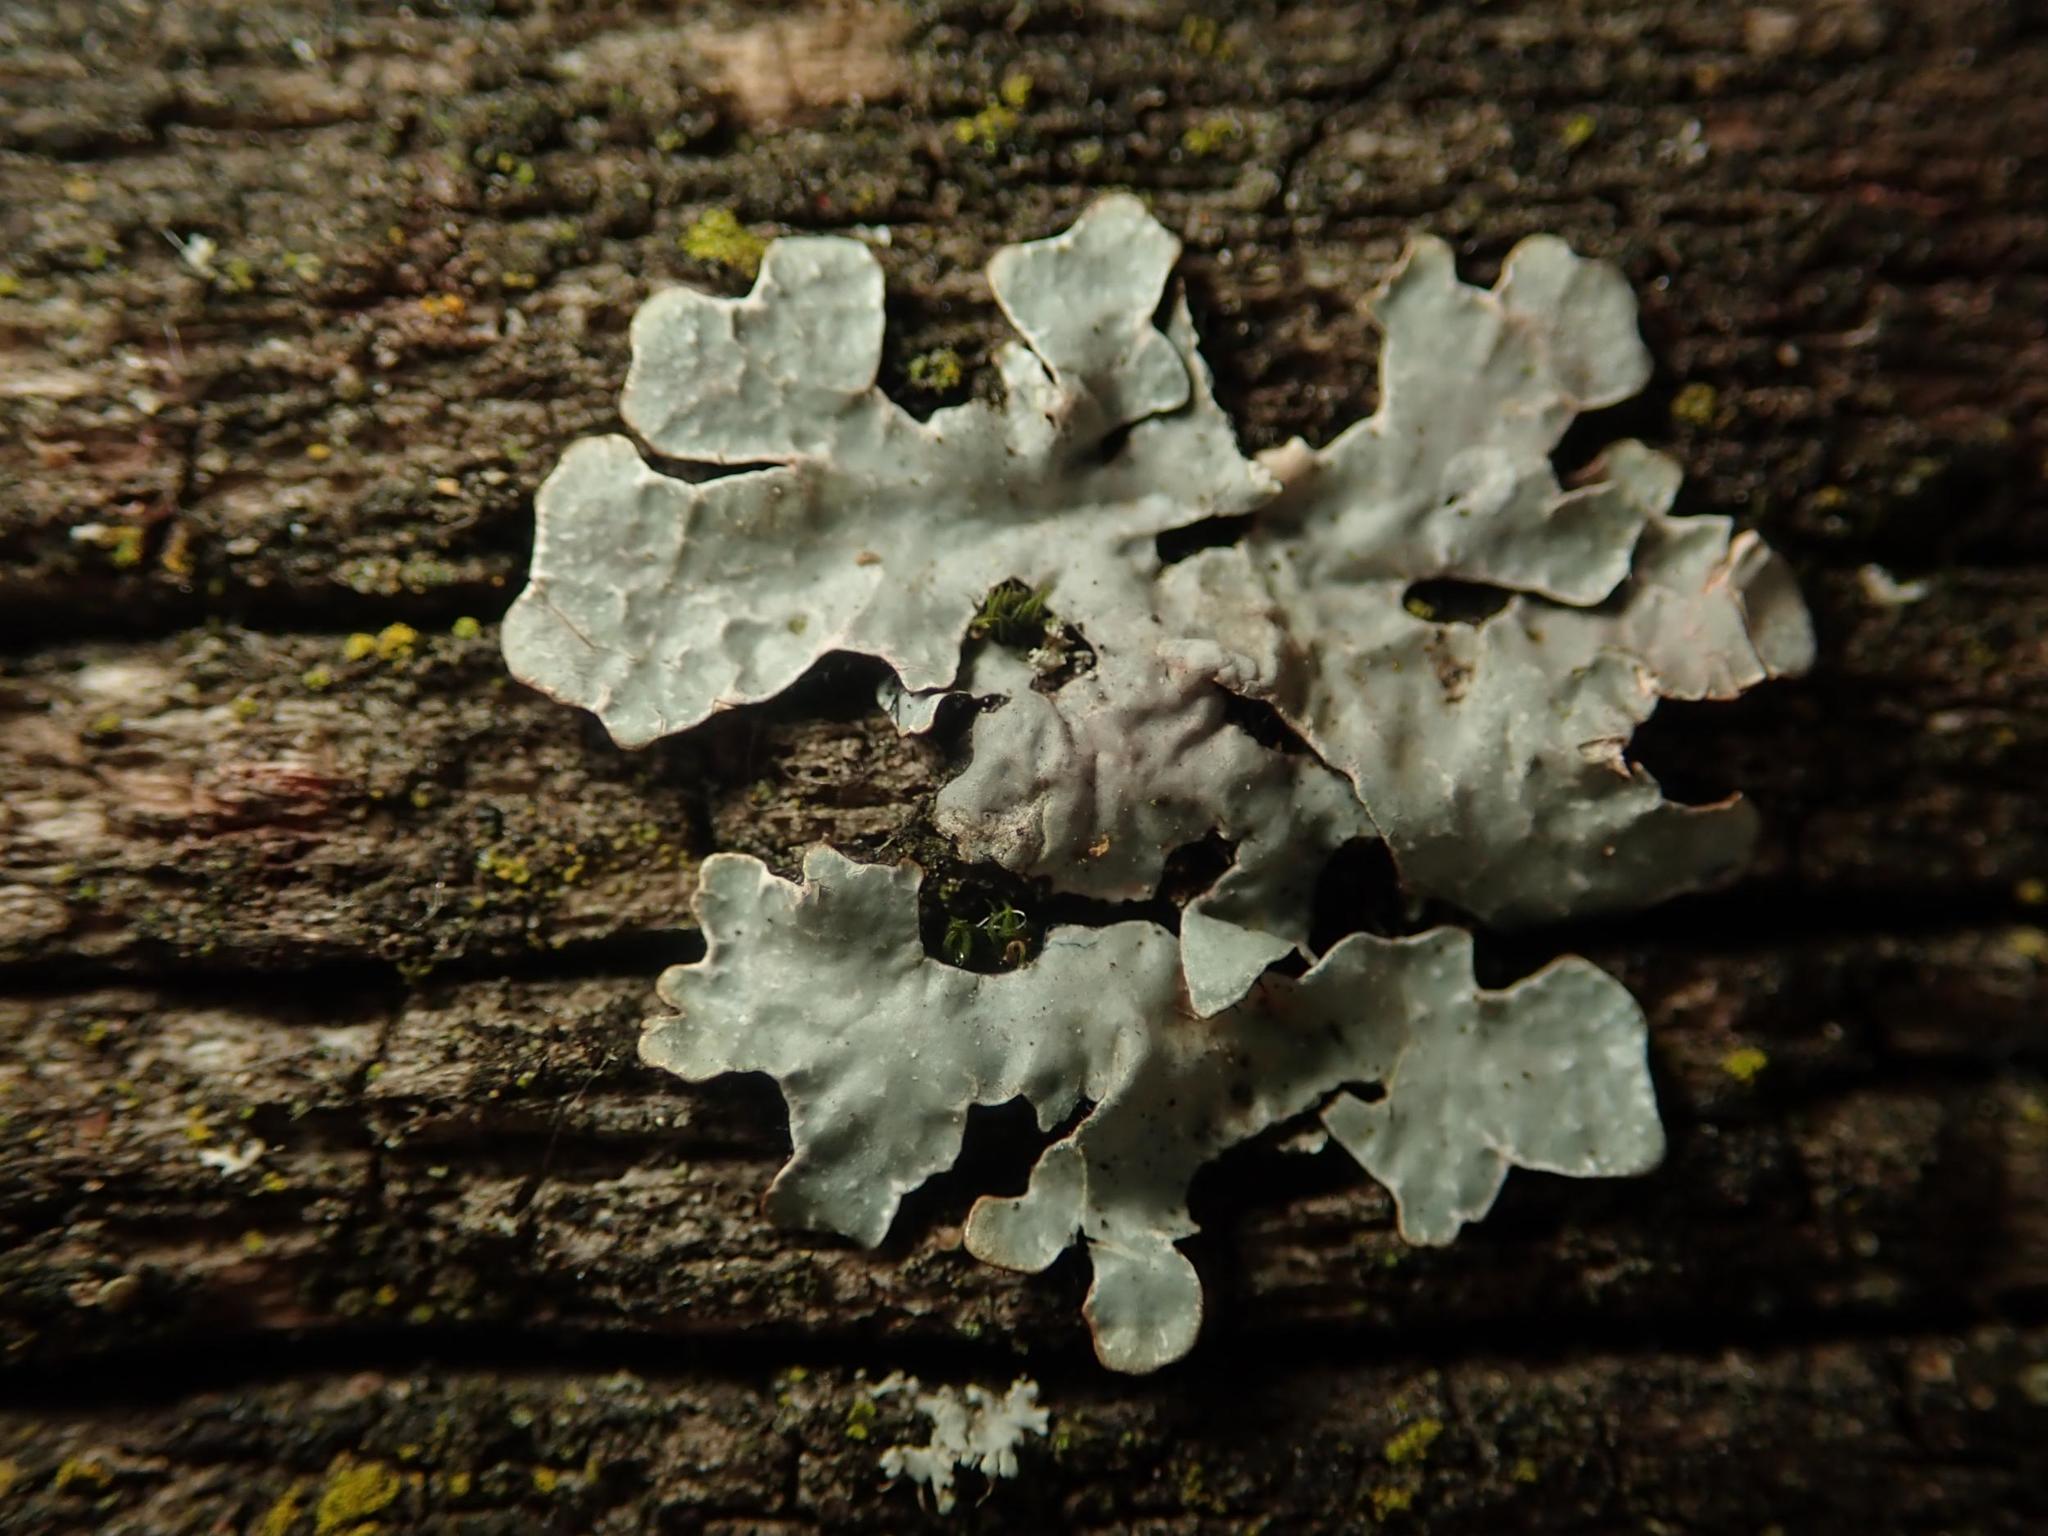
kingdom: Fungi
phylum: Ascomycota
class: Lecanoromycetes
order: Lecanorales
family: Parmeliaceae
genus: Parmelia
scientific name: Parmelia sulcata
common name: Netted shield lichen
